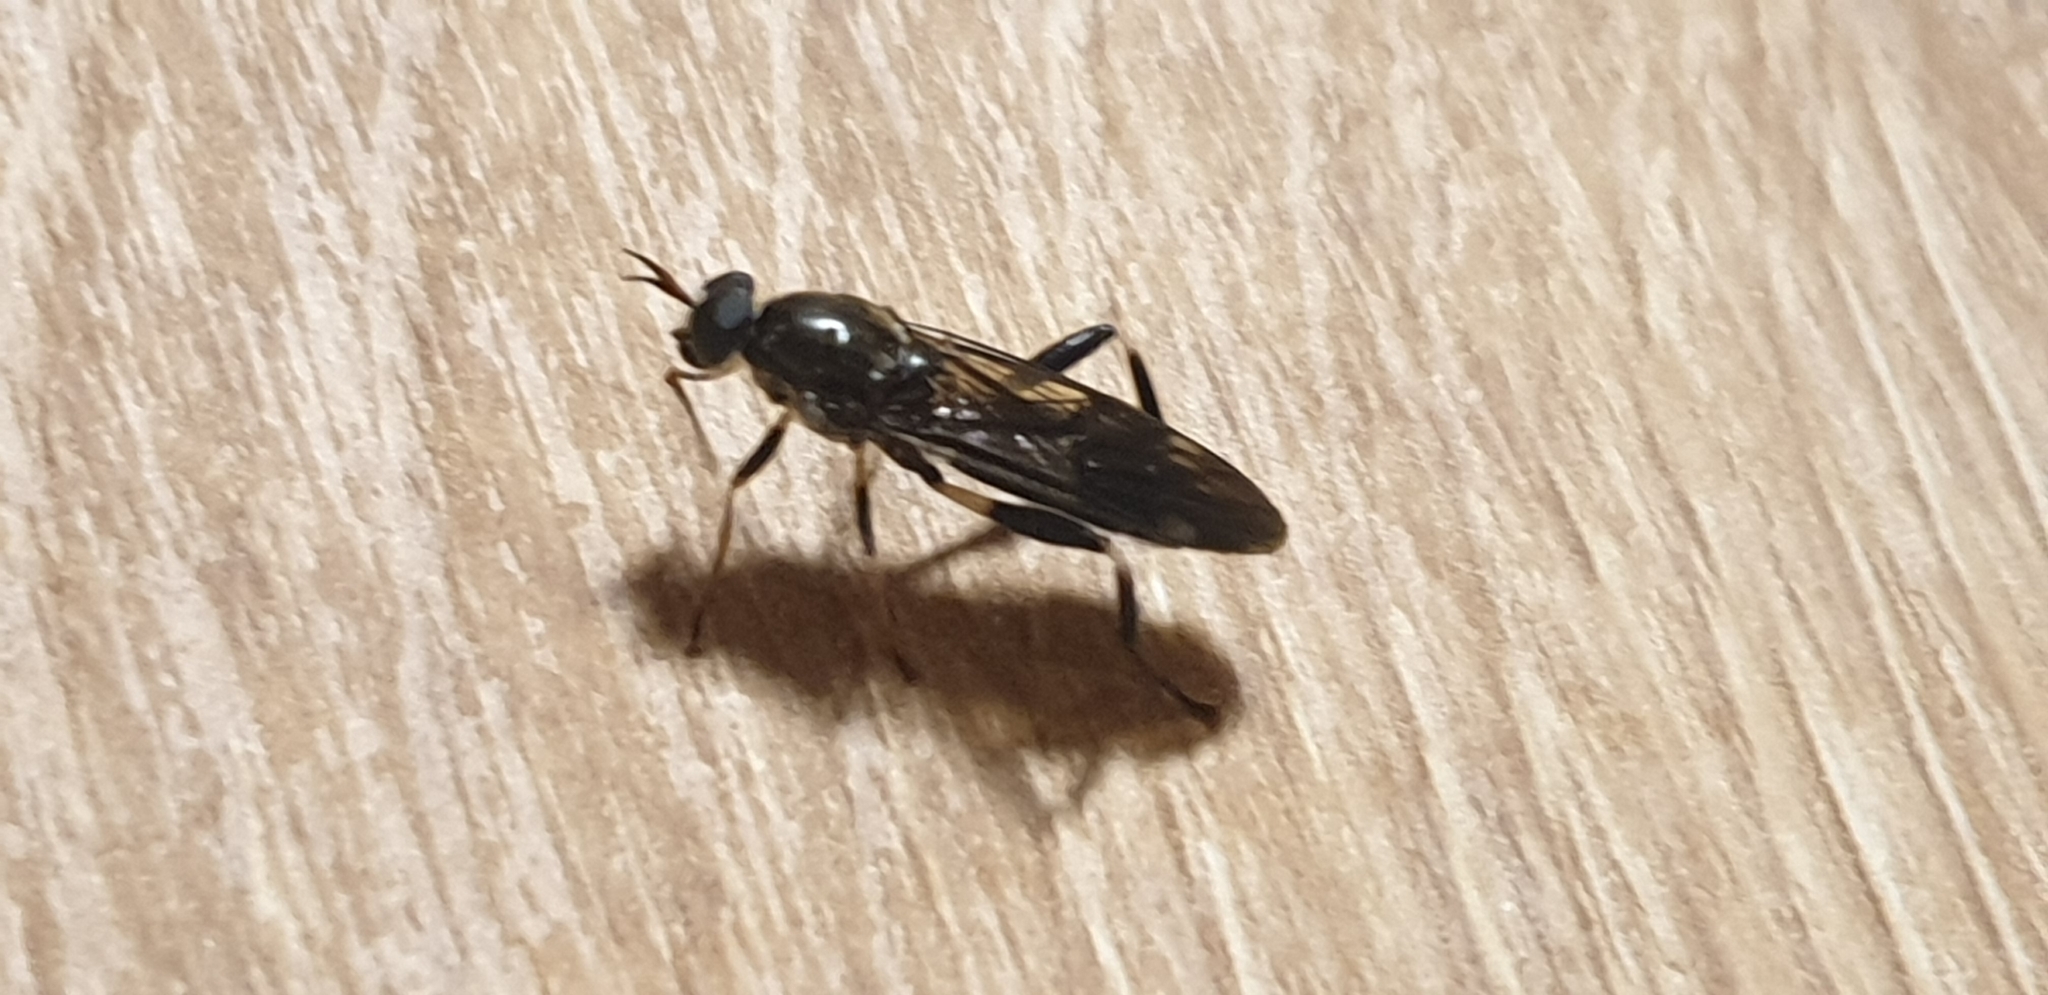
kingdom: Animalia
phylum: Arthropoda
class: Insecta
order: Diptera
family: Stratiomyidae
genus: Exaireta
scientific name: Exaireta spinigera
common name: Blue soldier fly
